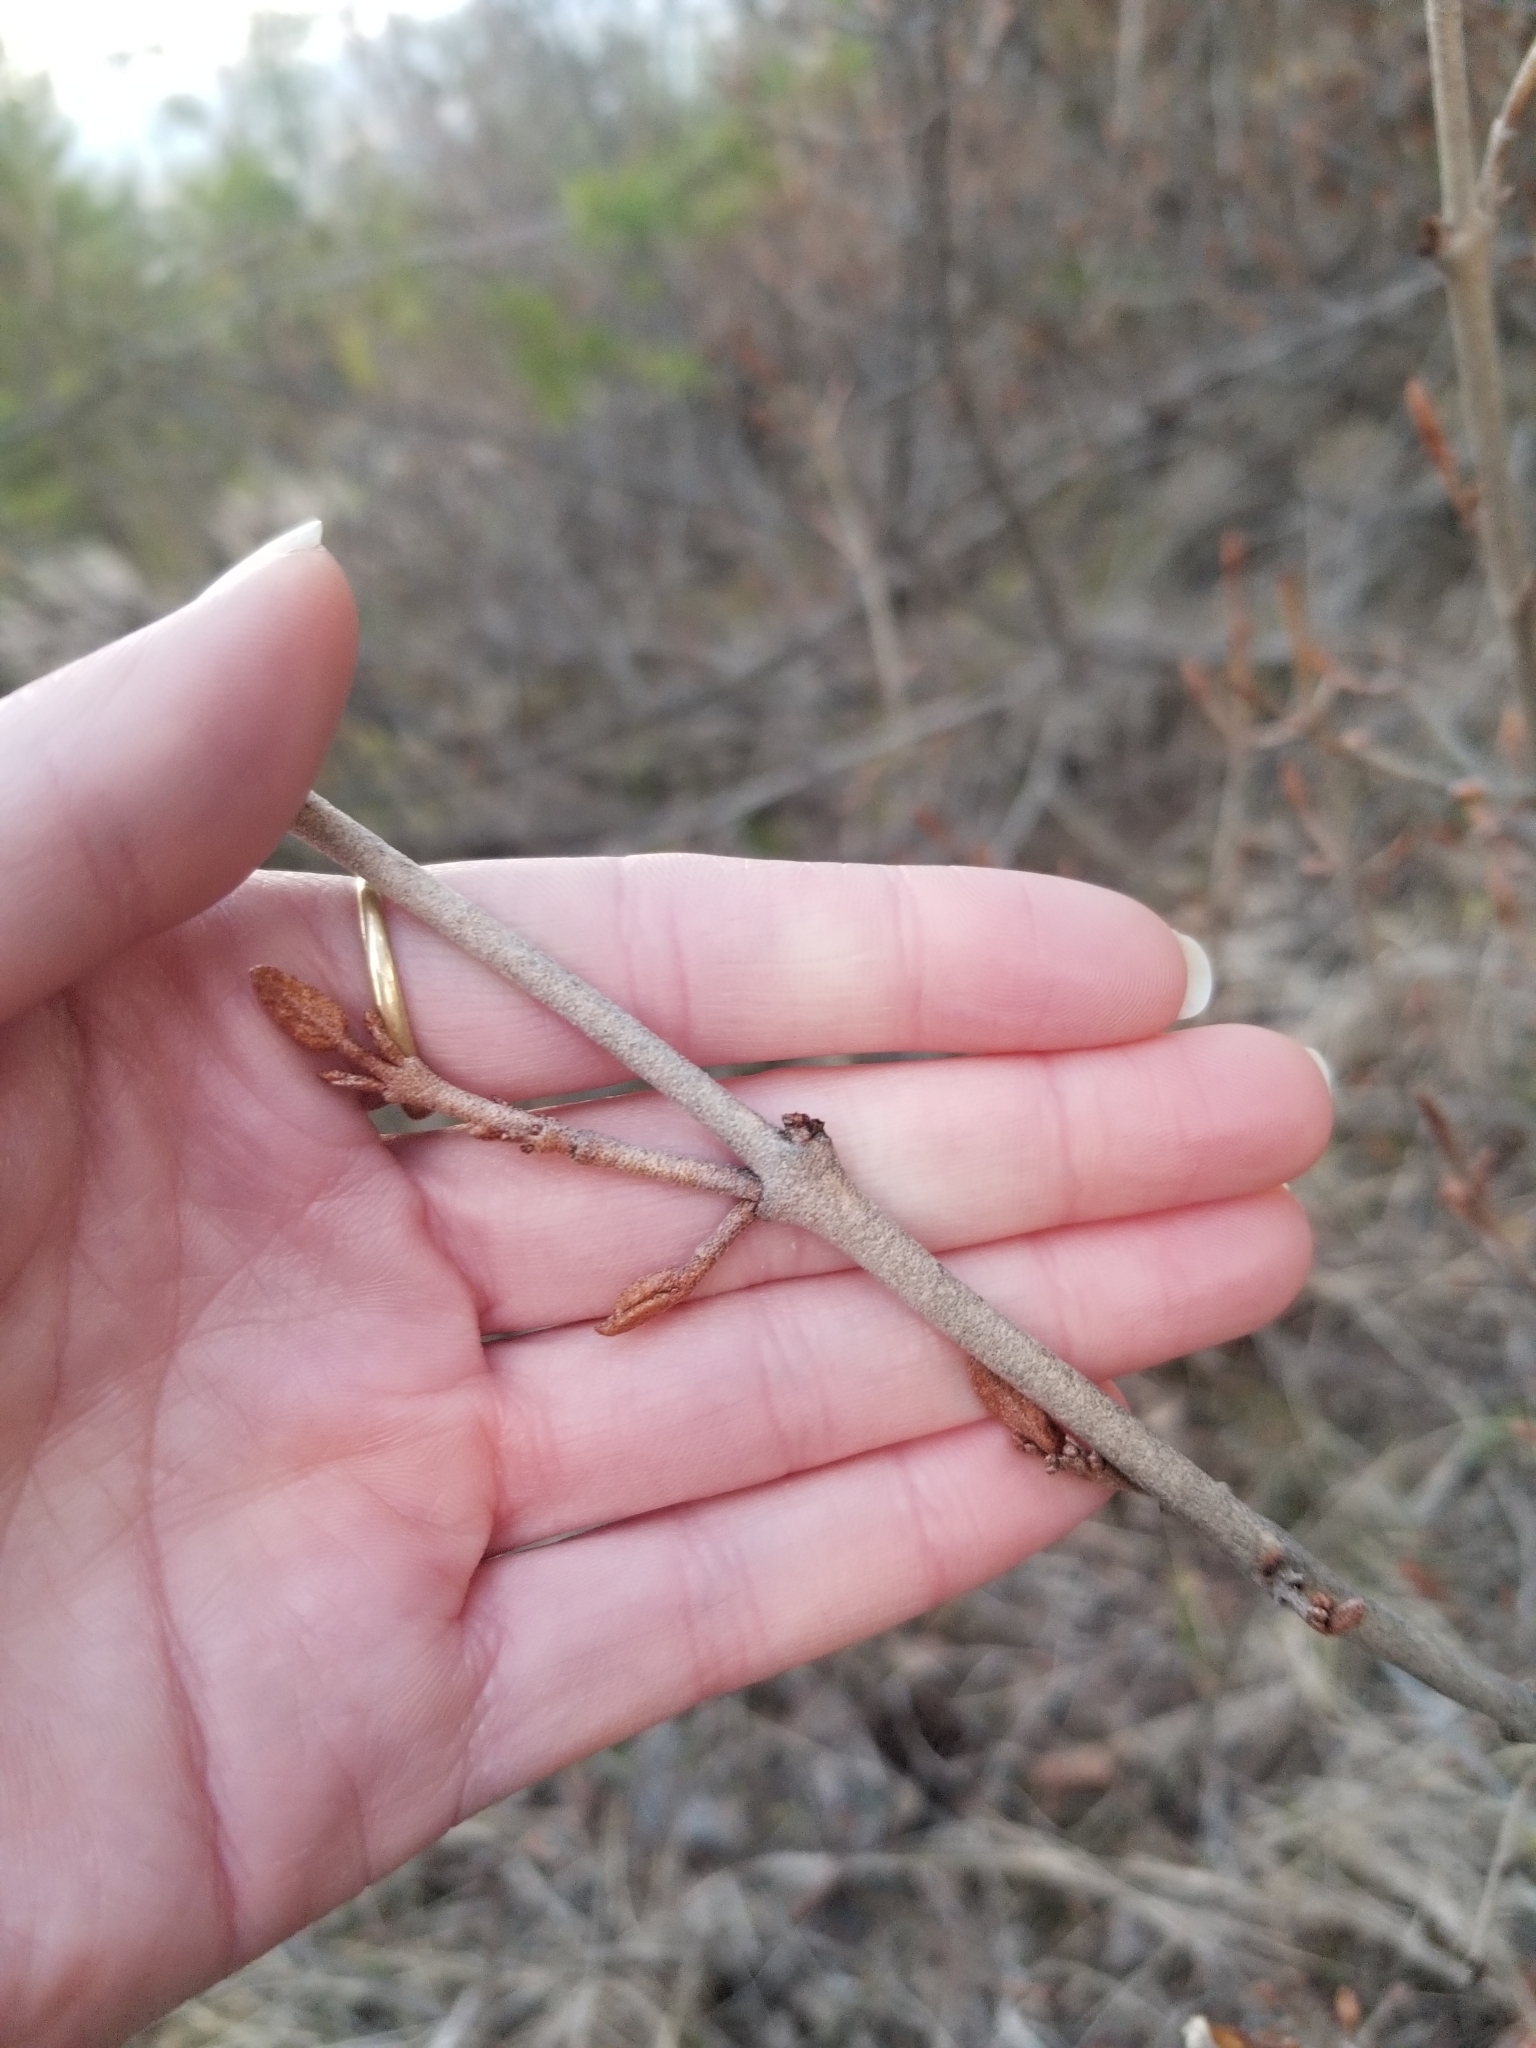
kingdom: Plantae
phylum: Tracheophyta
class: Magnoliopsida
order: Rosales
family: Elaeagnaceae
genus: Shepherdia
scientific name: Shepherdia canadensis
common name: Soapberry
